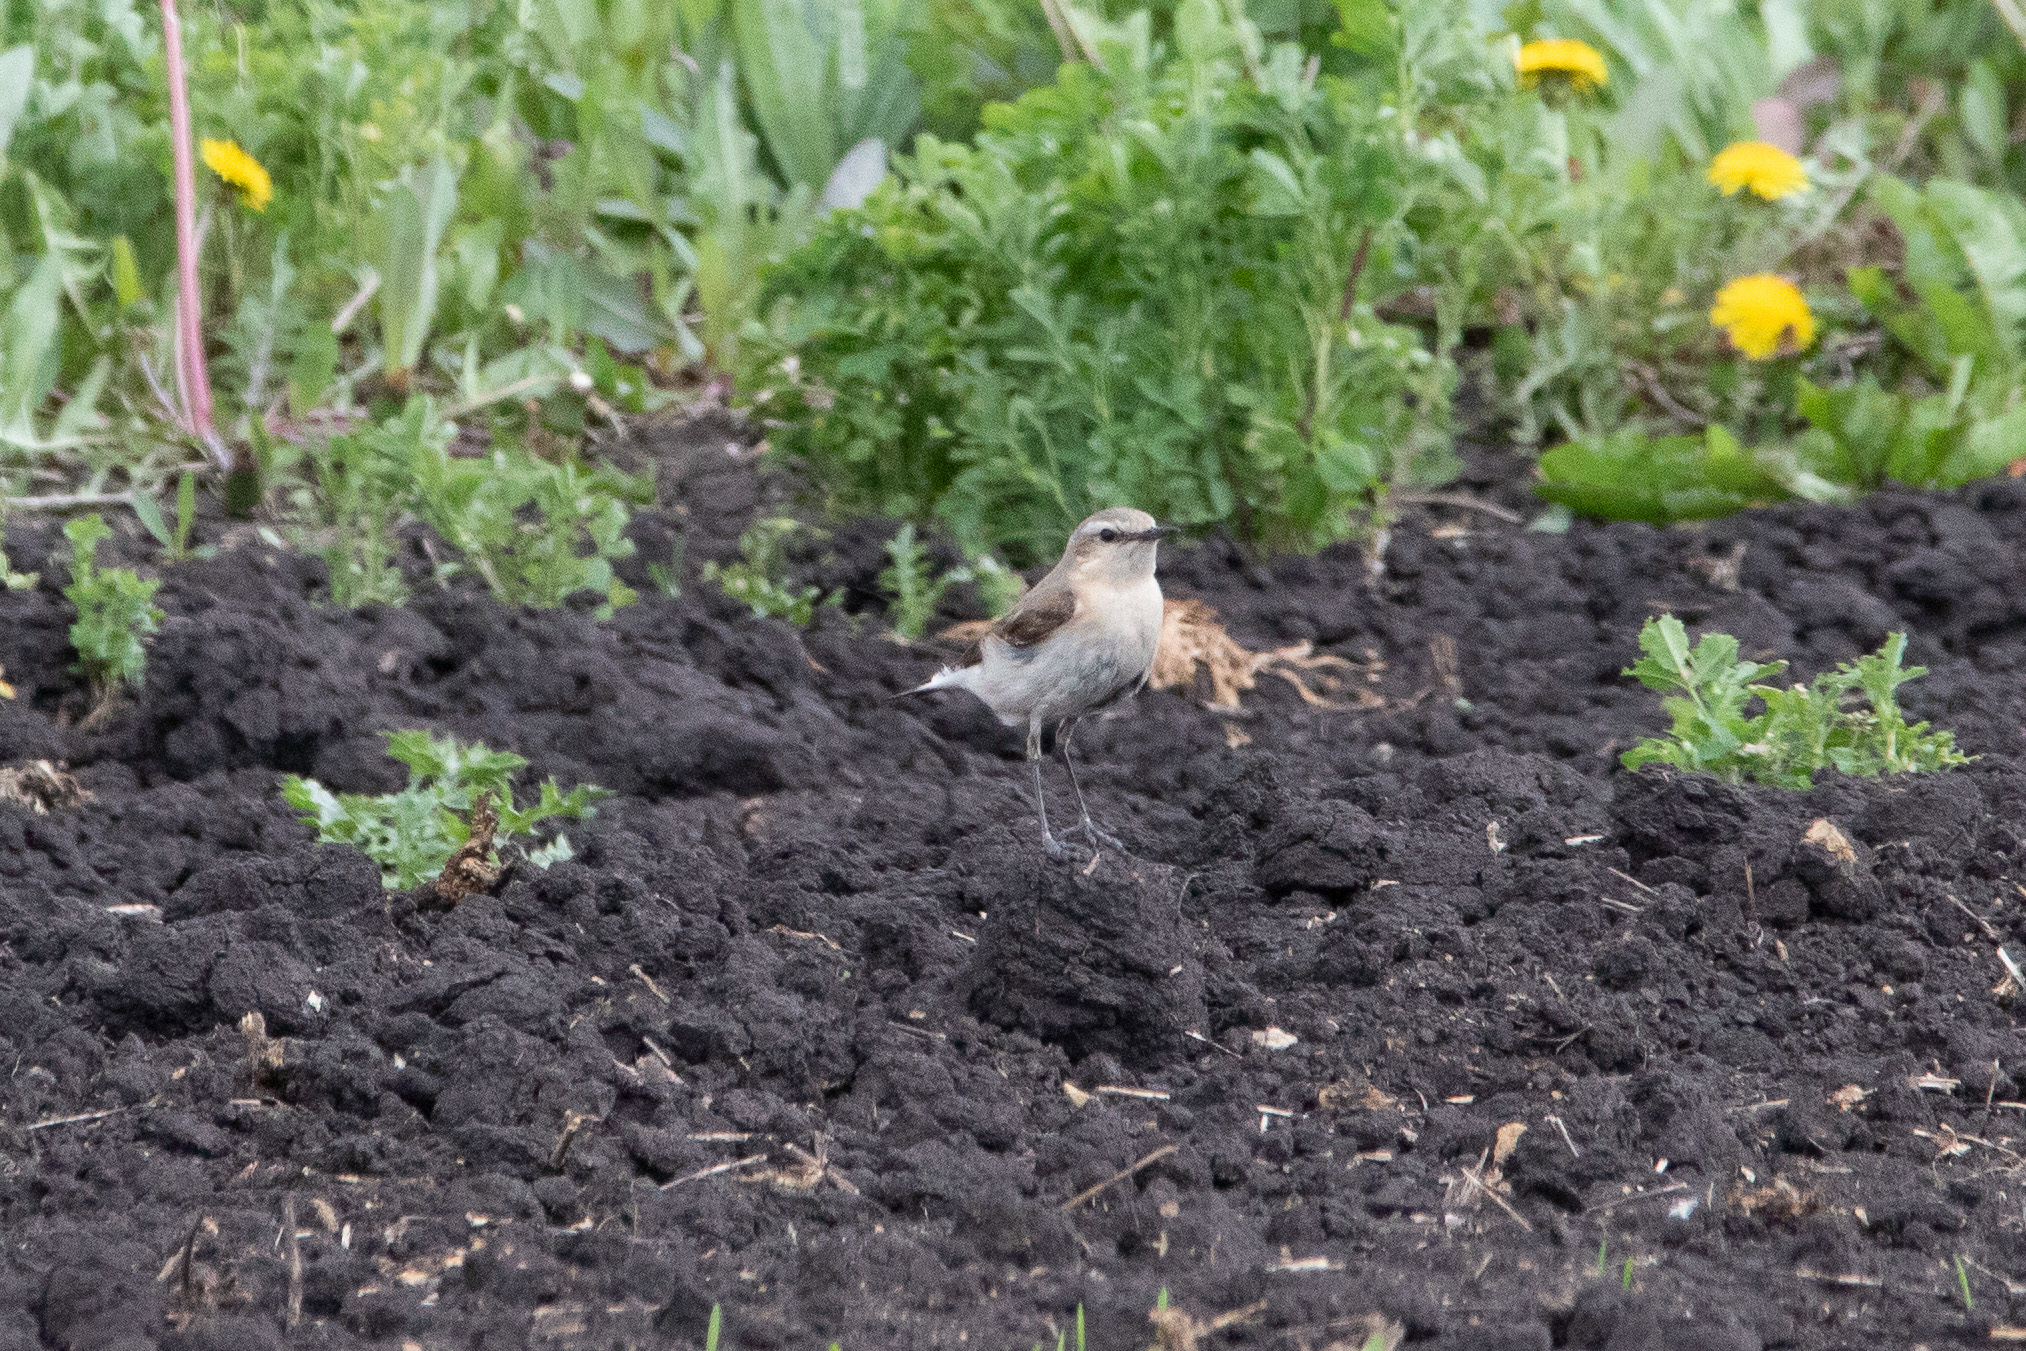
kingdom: Animalia
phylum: Chordata
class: Aves
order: Passeriformes
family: Muscicapidae
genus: Oenanthe
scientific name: Oenanthe oenanthe
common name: Northern wheatear
